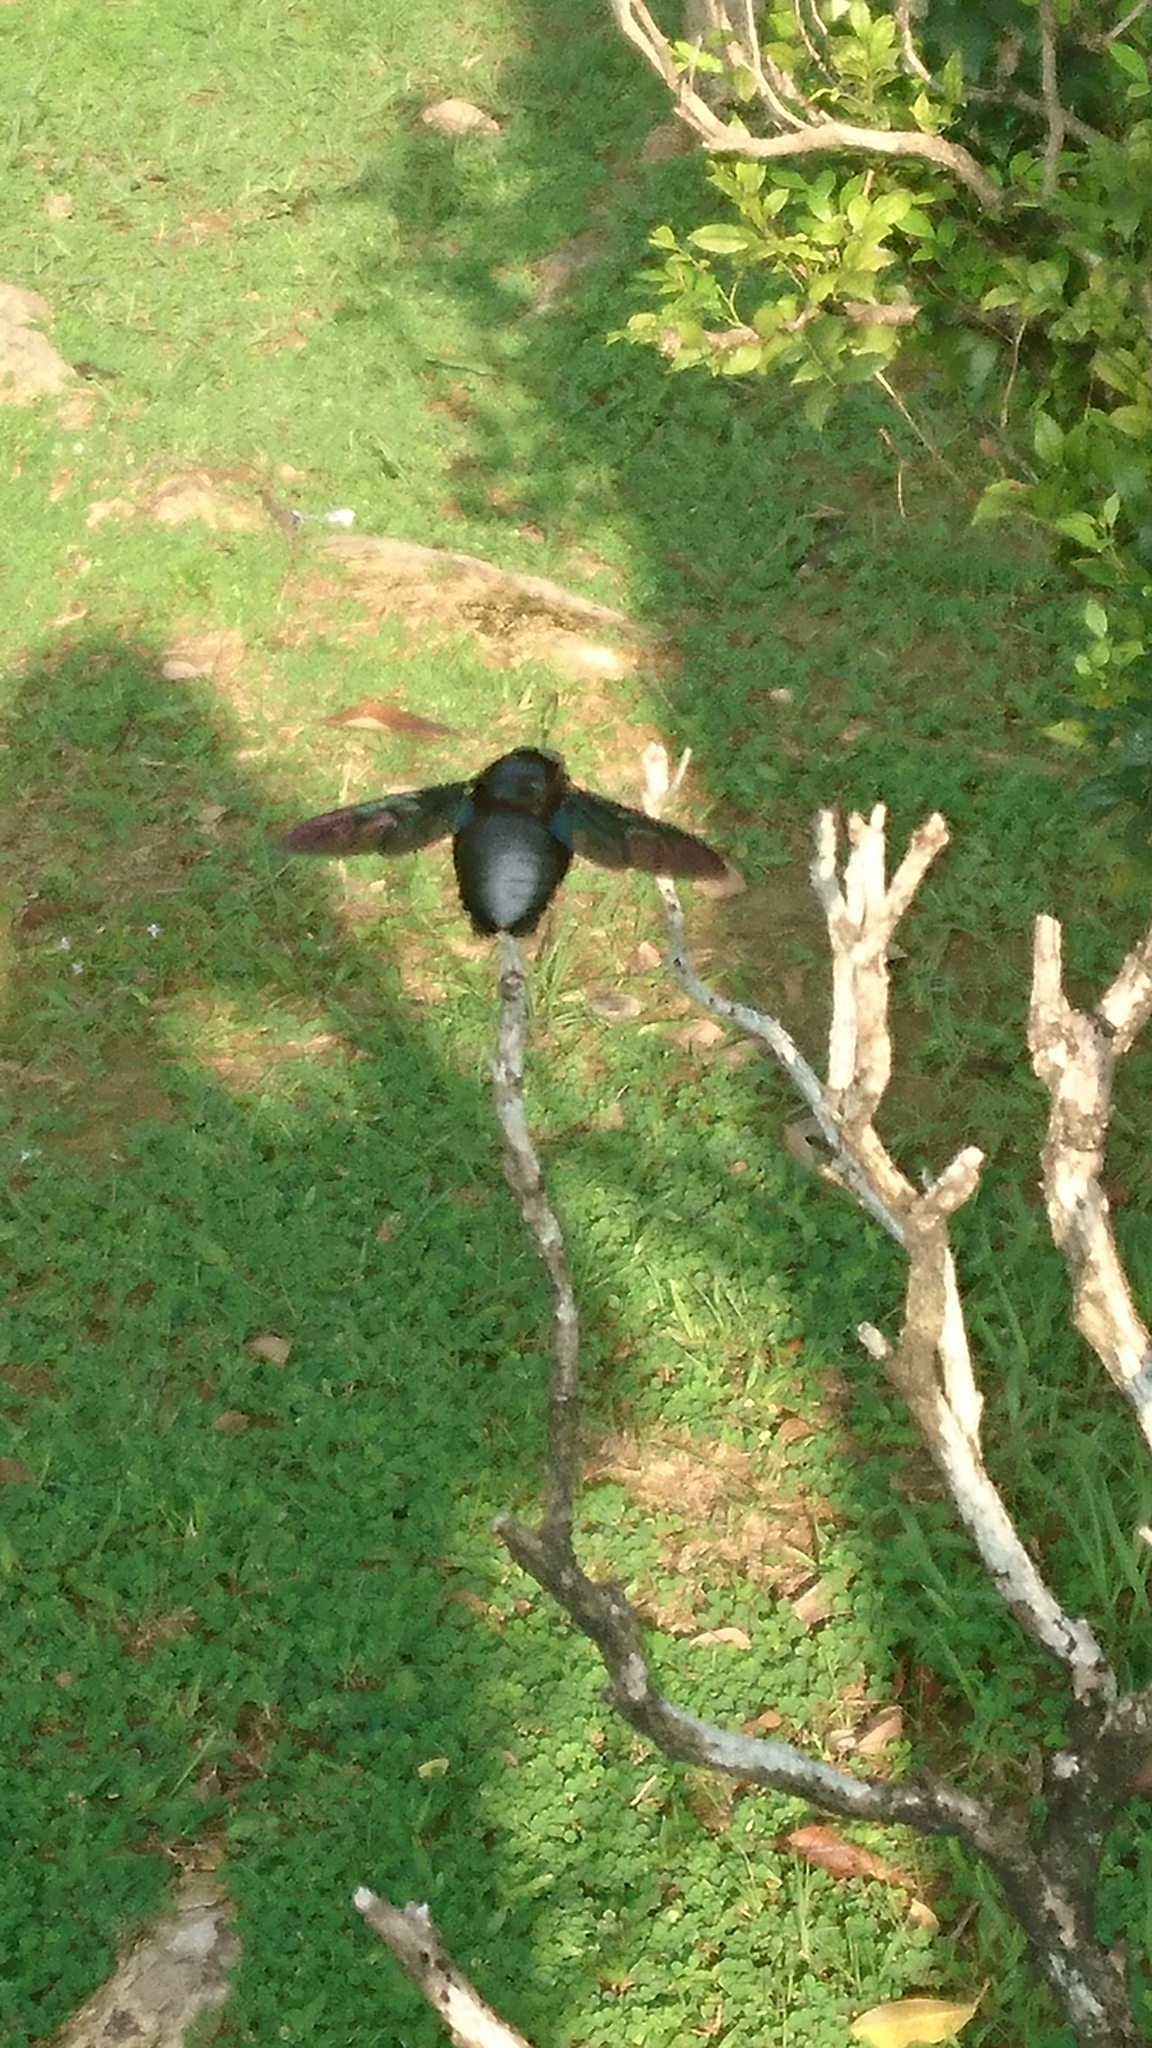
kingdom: Animalia
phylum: Arthropoda
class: Insecta
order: Hymenoptera
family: Apidae
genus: Xylocopa
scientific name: Xylocopa latipes
